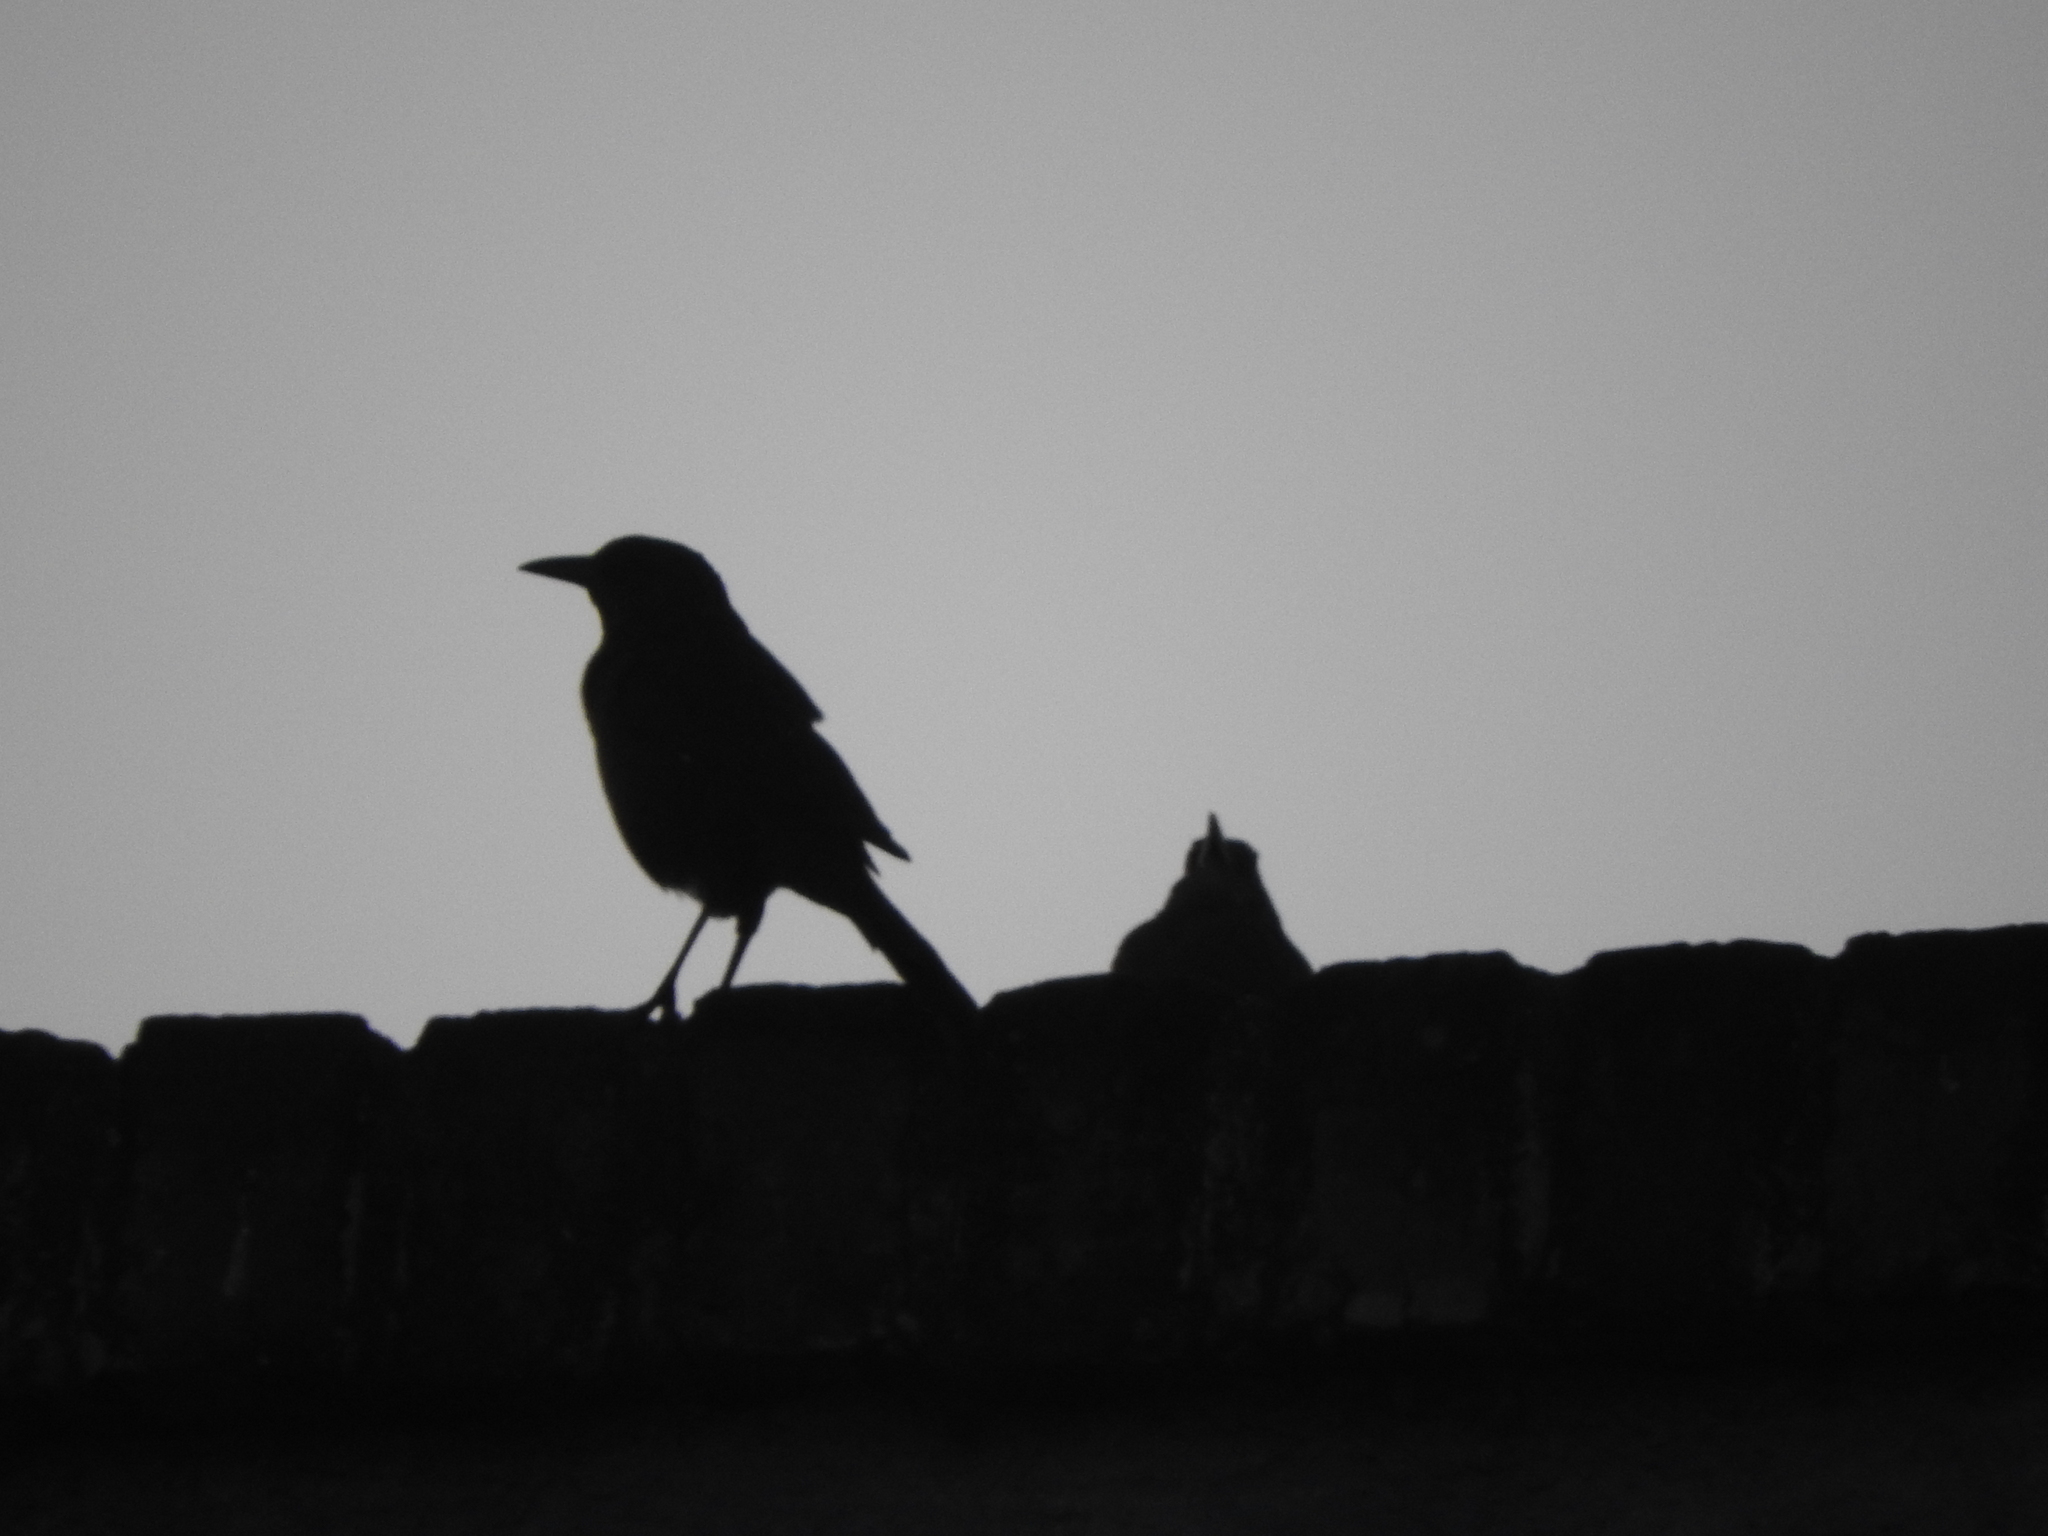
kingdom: Animalia
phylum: Chordata
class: Aves
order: Passeriformes
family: Icteridae
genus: Quiscalus
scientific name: Quiscalus mexicanus
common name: Great-tailed grackle
